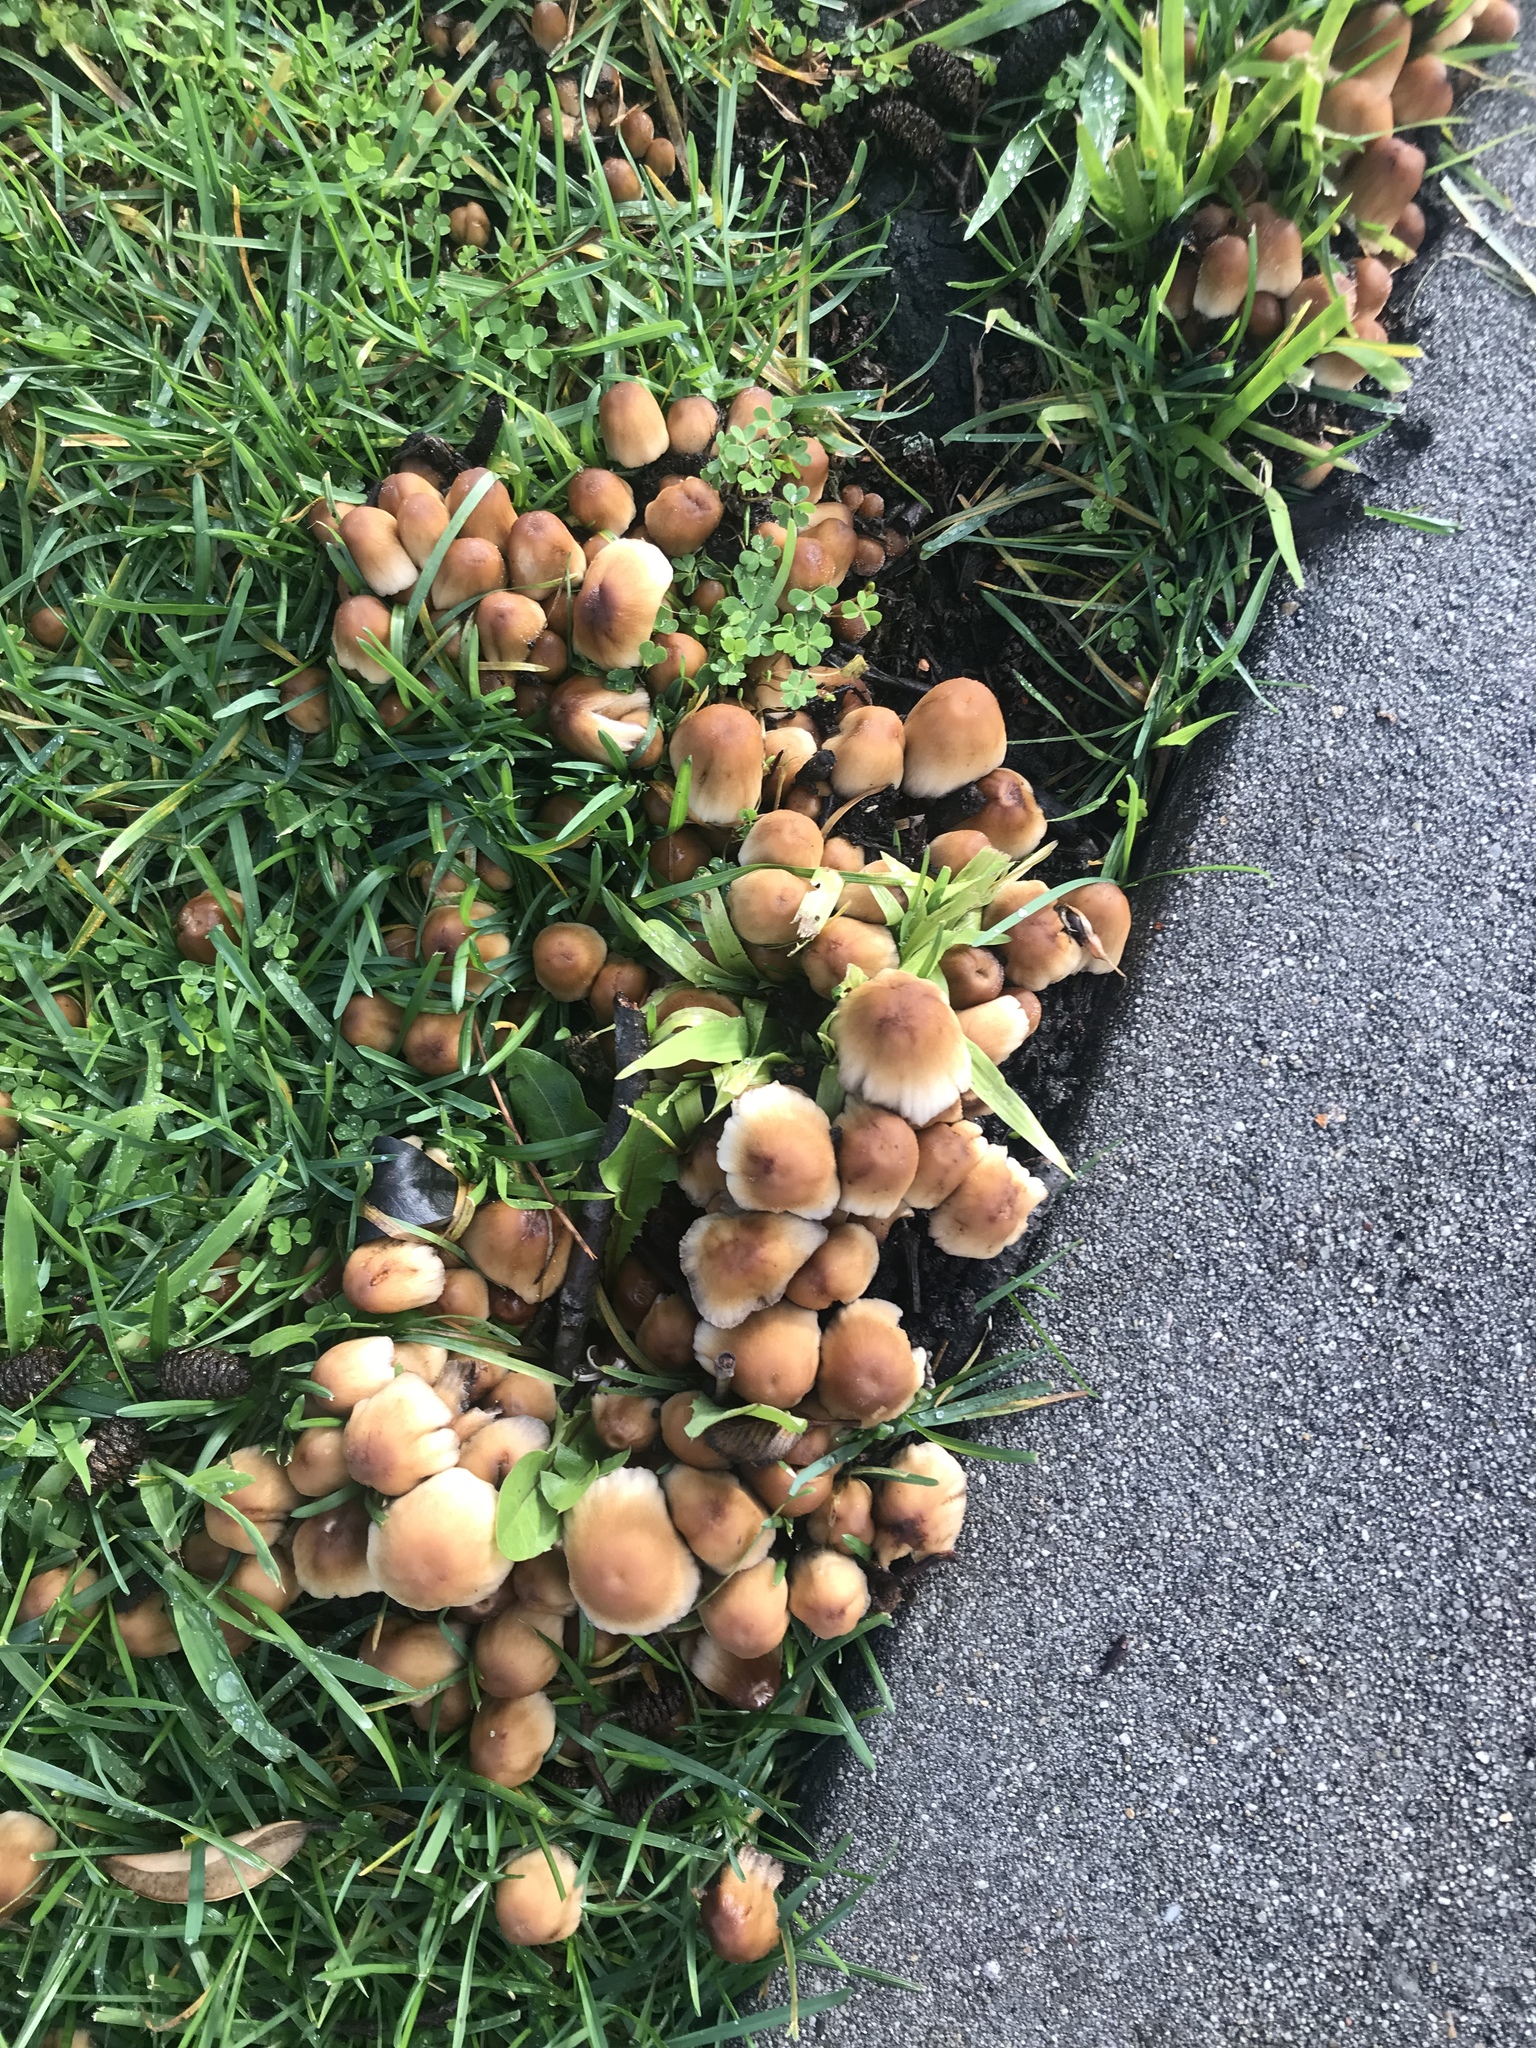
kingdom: Fungi
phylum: Basidiomycota
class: Agaricomycetes
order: Agaricales
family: Psathyrellaceae
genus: Coprinellus
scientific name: Coprinellus micaceus
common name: Glistening ink-cap
